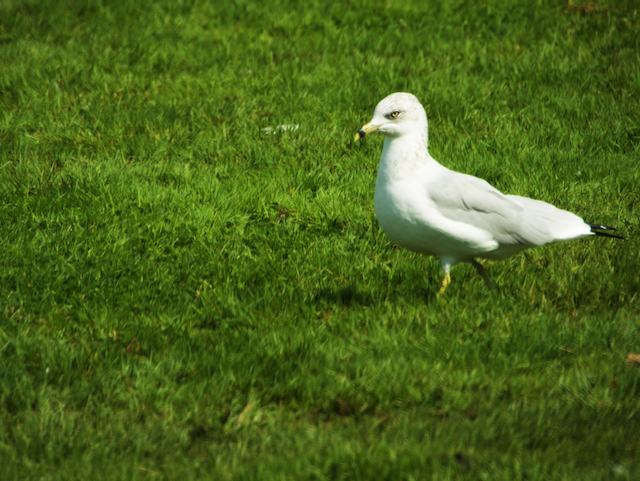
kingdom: Animalia
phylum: Chordata
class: Aves
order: Charadriiformes
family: Laridae
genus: Larus
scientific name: Larus delawarensis
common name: Ring-billed gull
